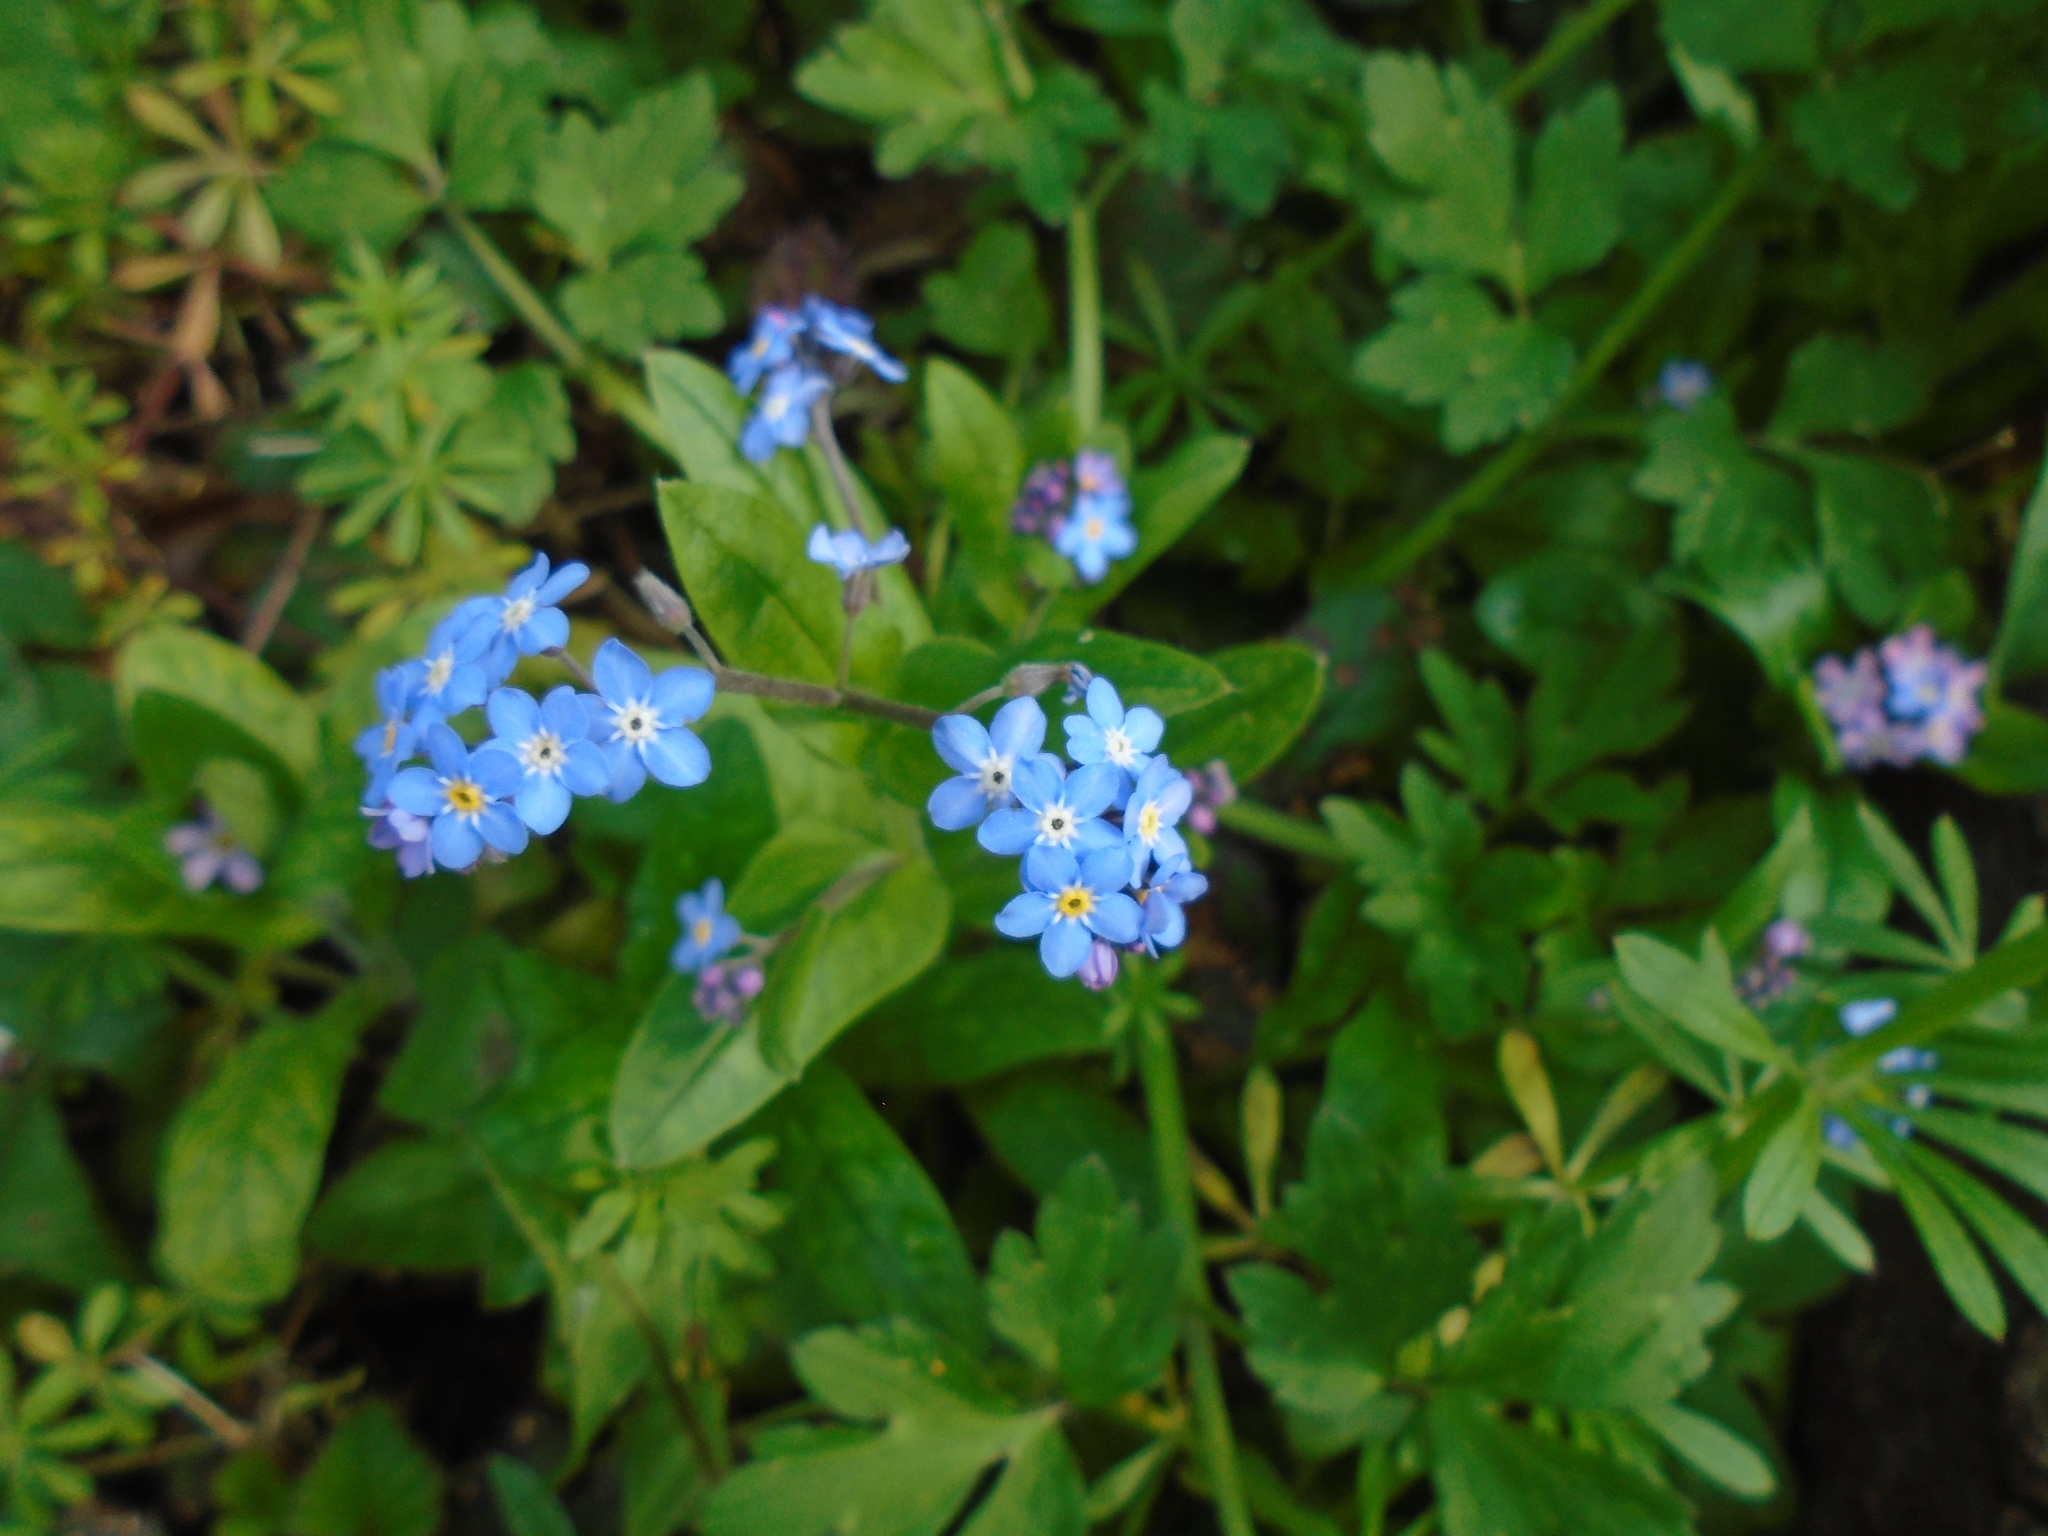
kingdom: Plantae
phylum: Tracheophyta
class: Magnoliopsida
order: Boraginales
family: Boraginaceae
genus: Myosotis
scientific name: Myosotis sylvatica
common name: Wood forget-me-not
